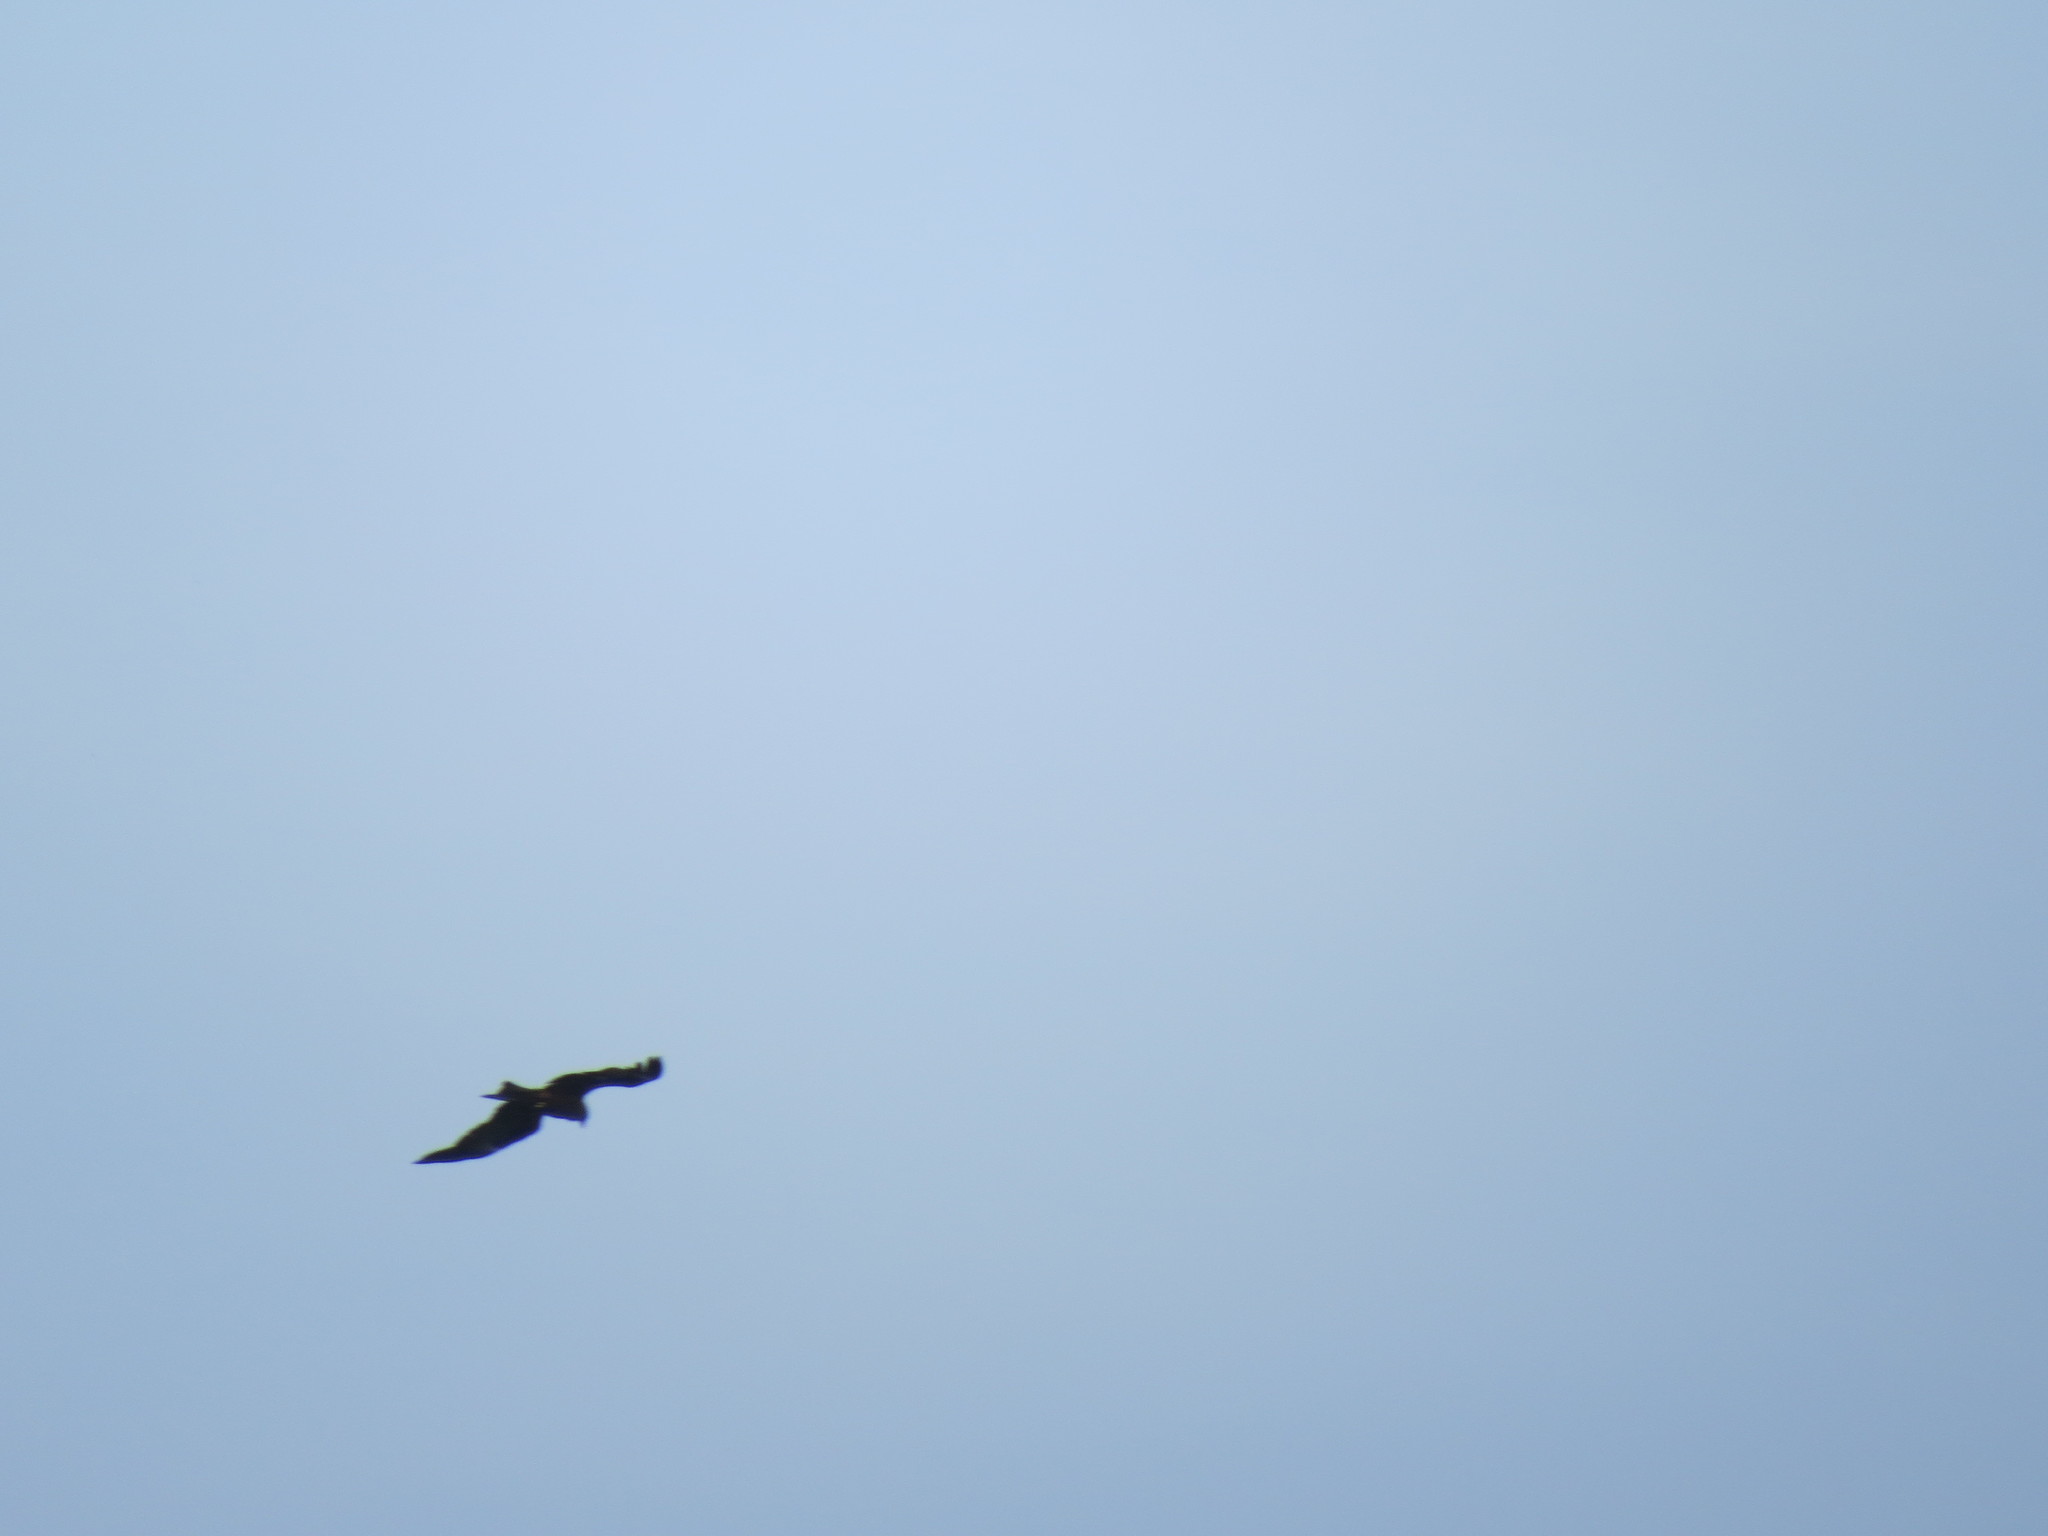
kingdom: Animalia
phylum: Chordata
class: Aves
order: Accipitriformes
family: Accipitridae
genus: Milvus
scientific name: Milvus migrans
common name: Black kite
